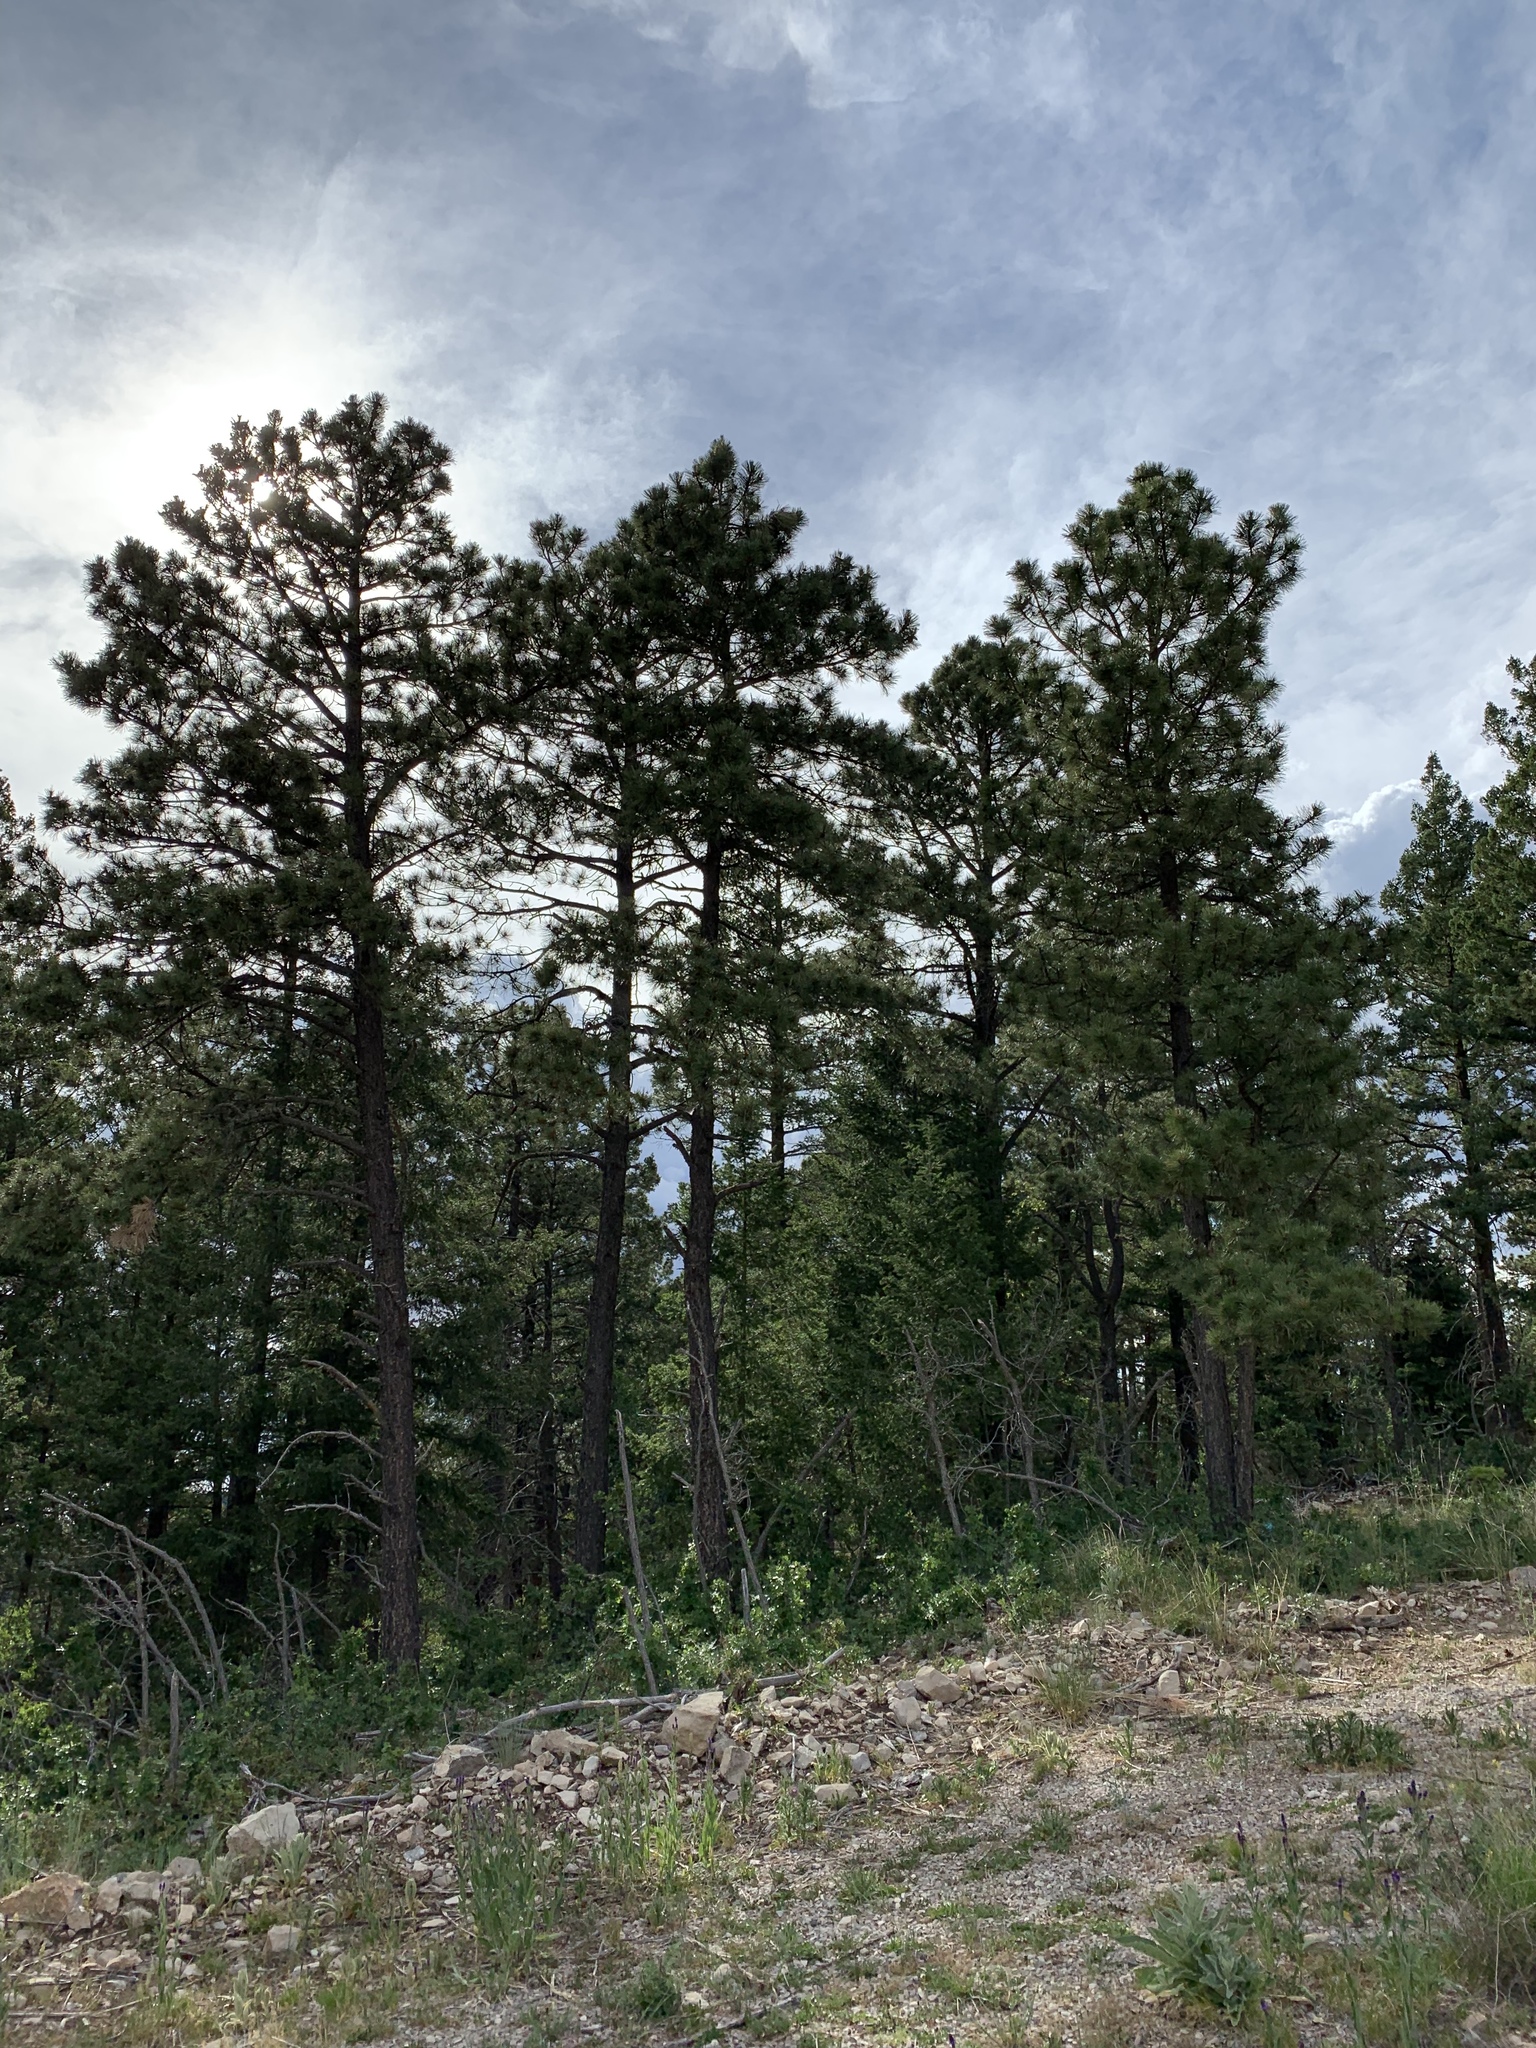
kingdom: Plantae
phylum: Tracheophyta
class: Pinopsida
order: Pinales
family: Pinaceae
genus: Pinus
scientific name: Pinus ponderosa
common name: Western yellow-pine
